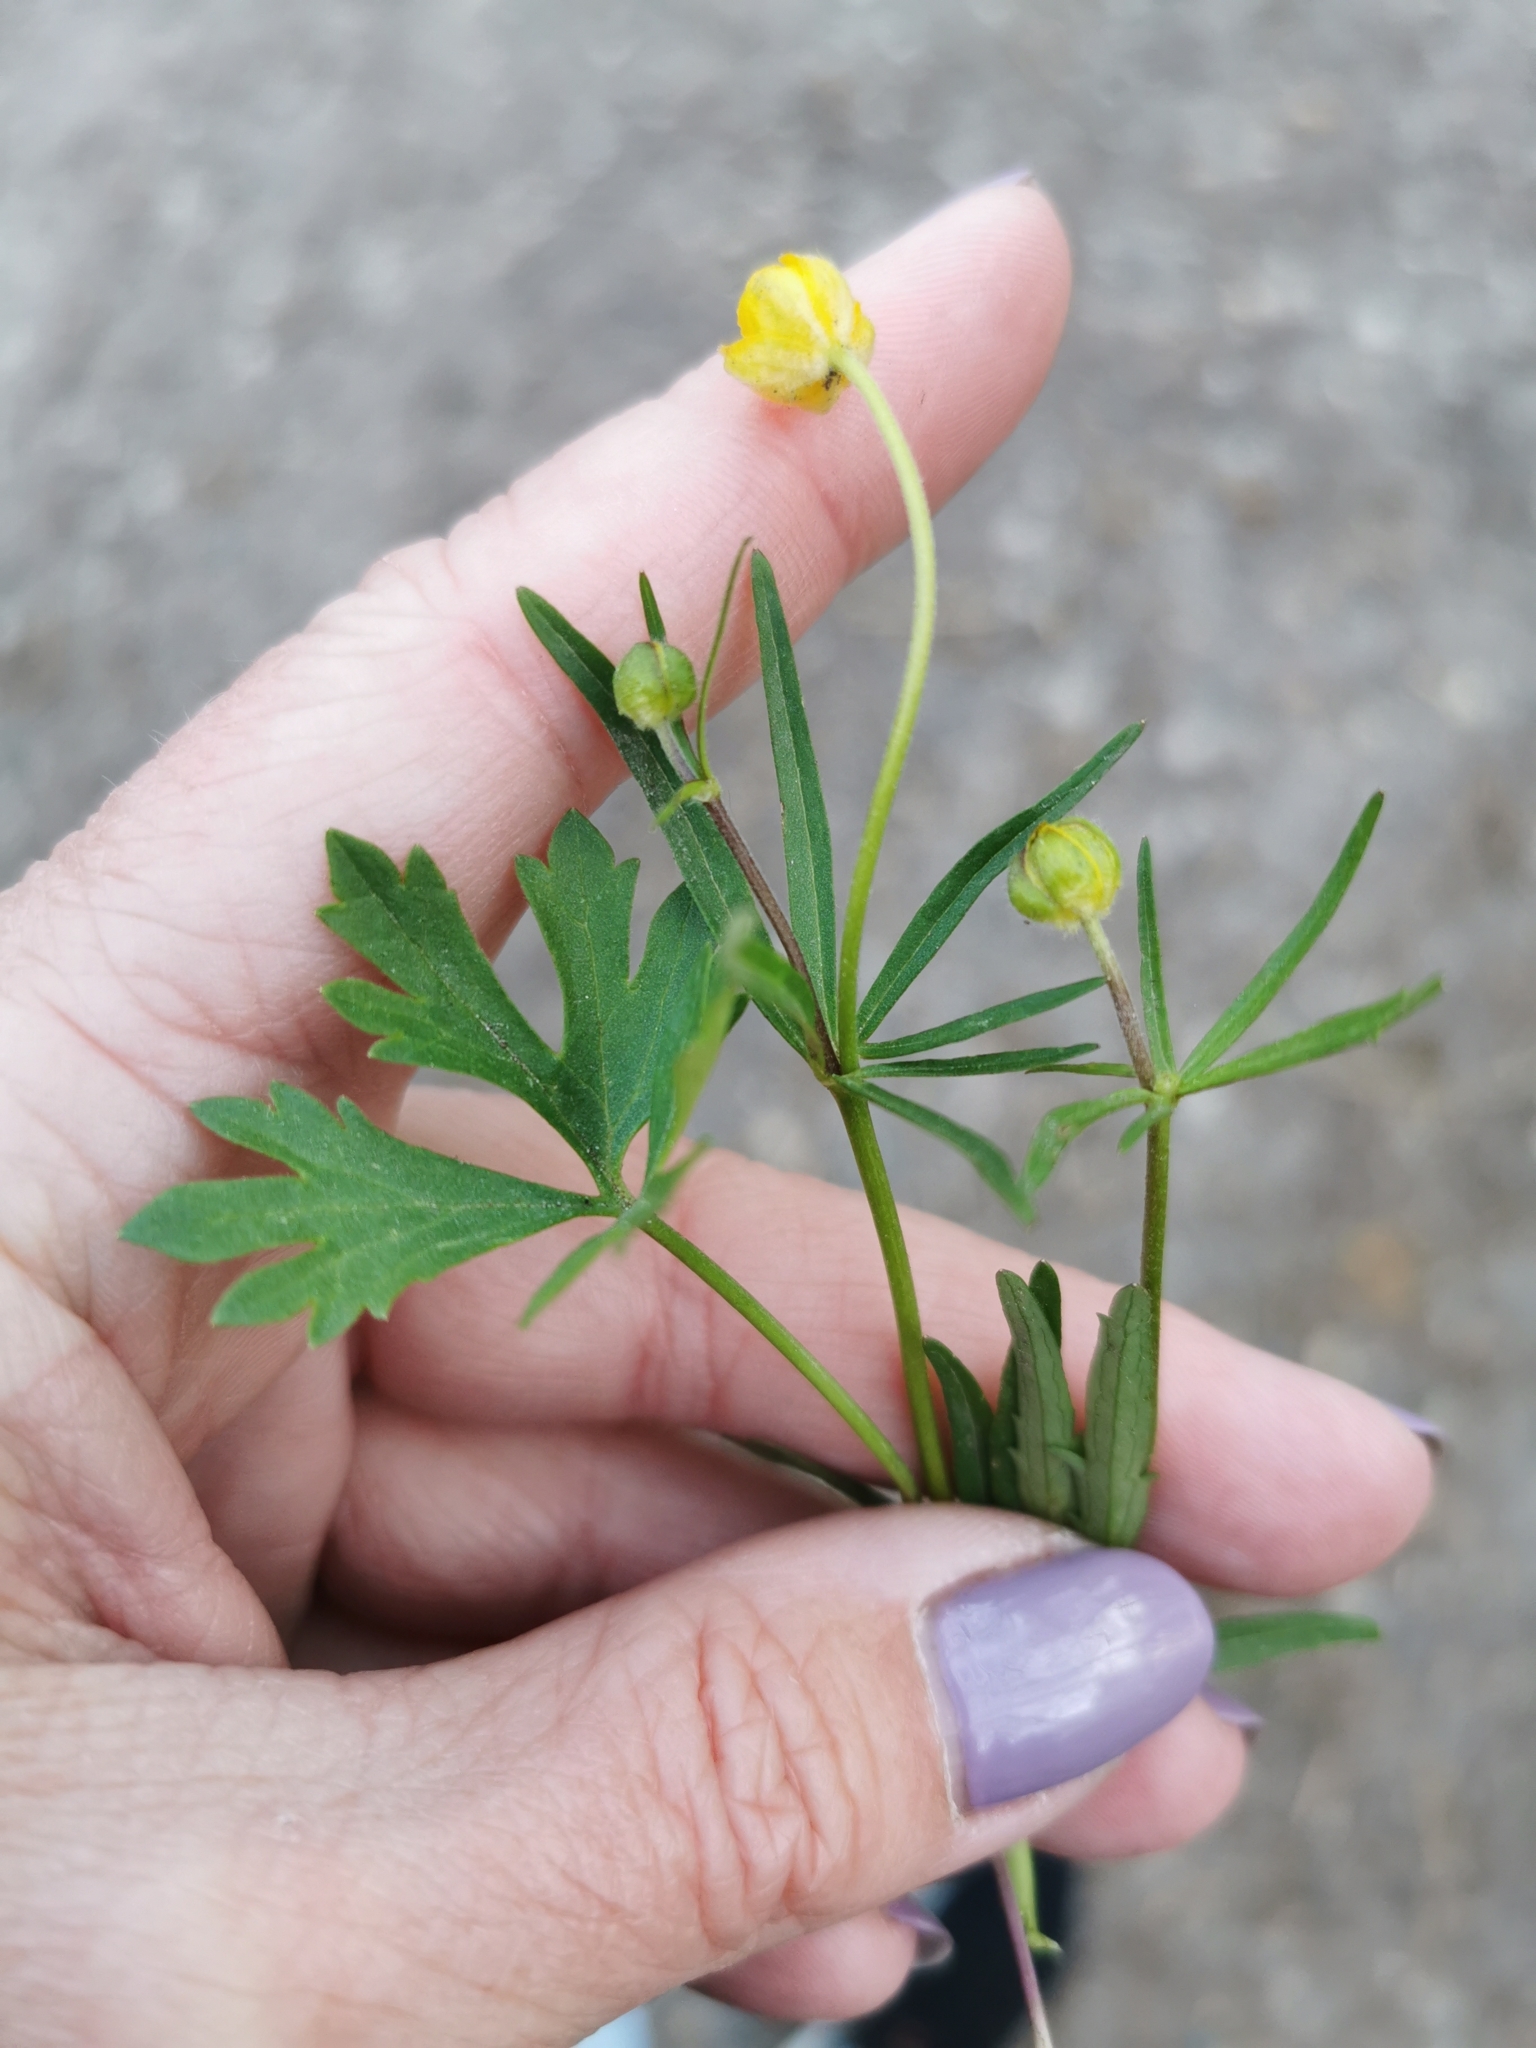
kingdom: Plantae
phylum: Tracheophyta
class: Magnoliopsida
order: Ranunculales
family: Ranunculaceae
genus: Ranunculus
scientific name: Ranunculus auricomus
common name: Goldilocks buttercup
